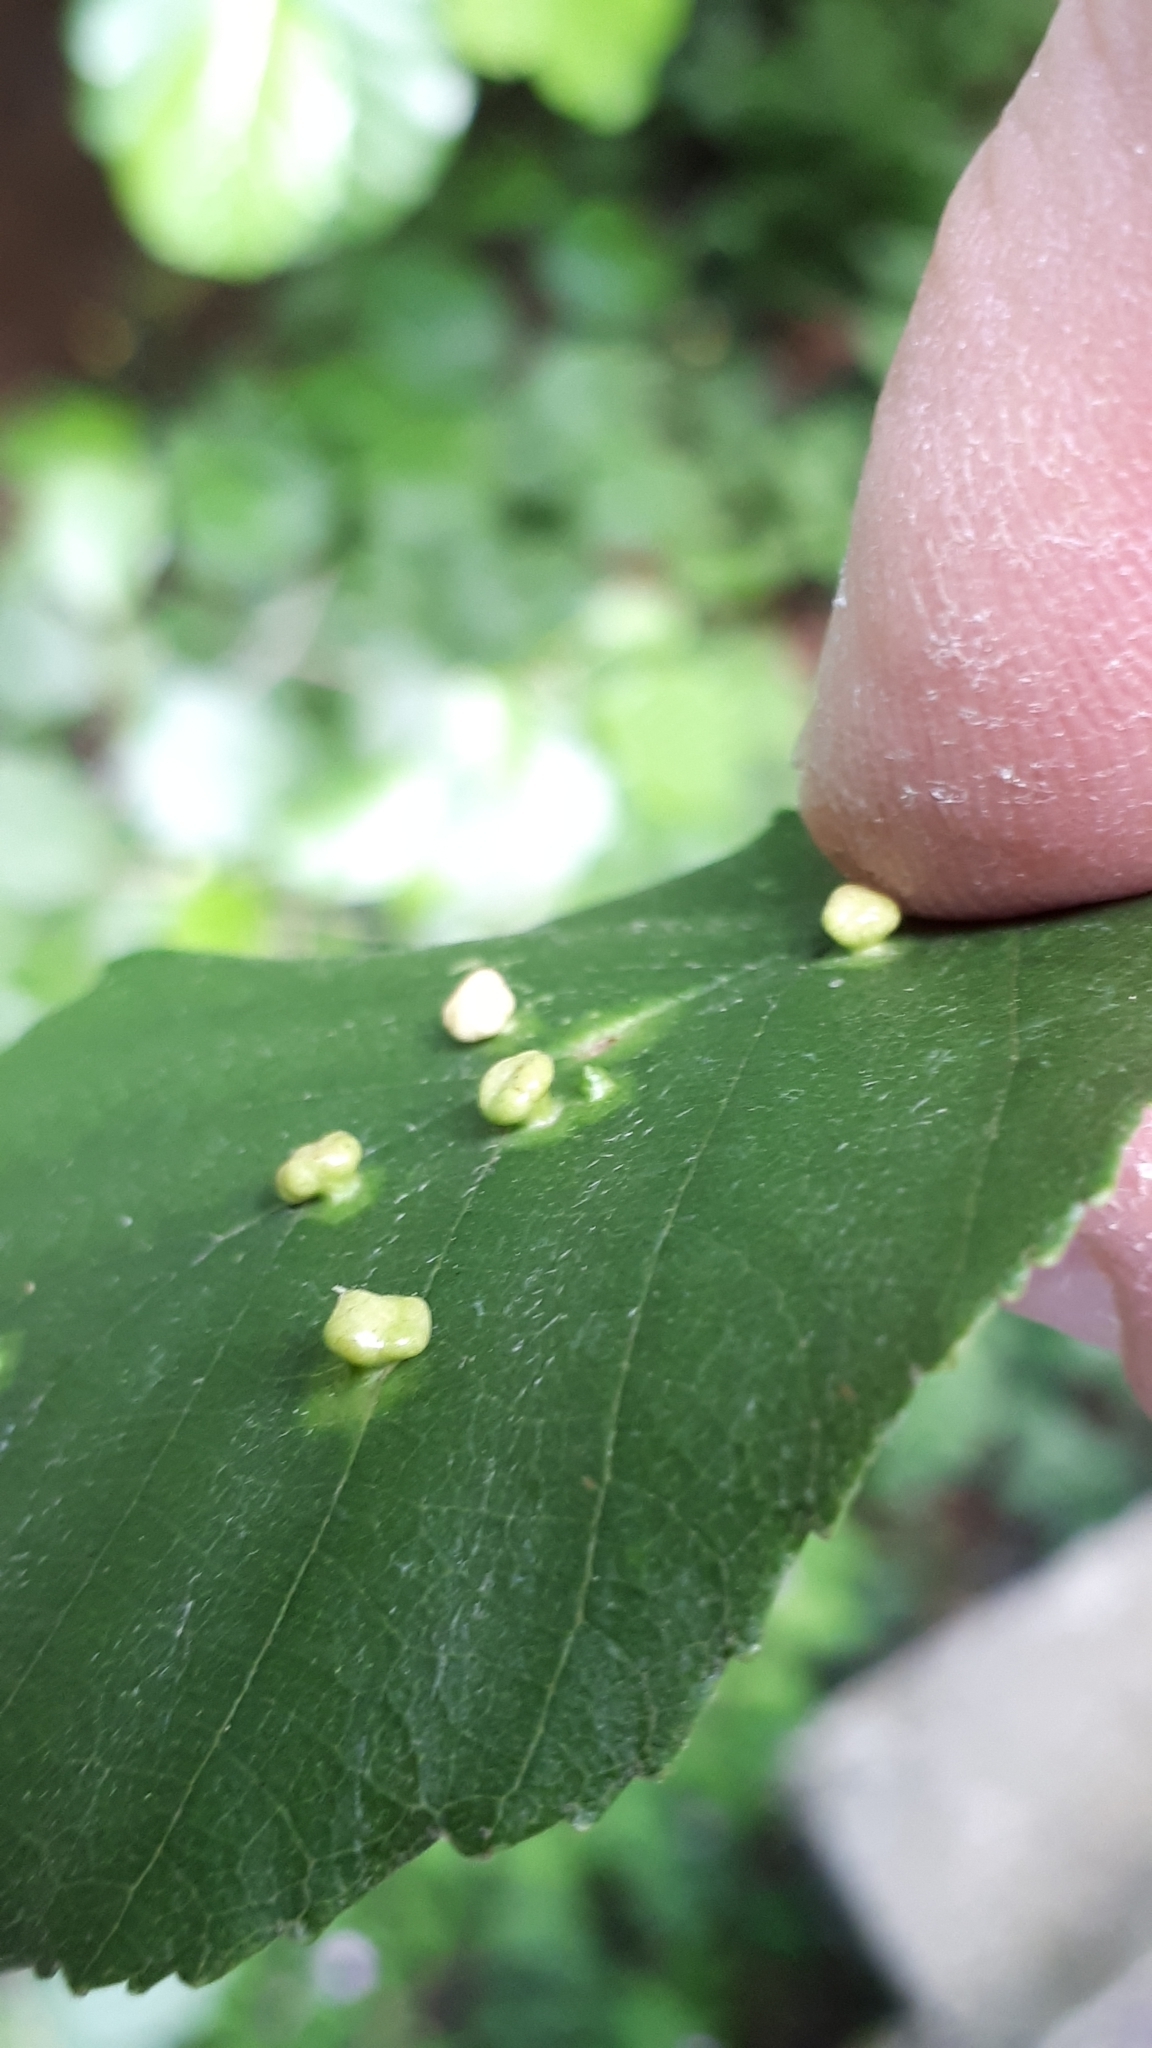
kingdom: Animalia
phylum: Arthropoda
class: Arachnida
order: Trombidiformes
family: Eriophyidae
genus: Eriophyes
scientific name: Eriophyes laevis
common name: Alder leaf gall mite
